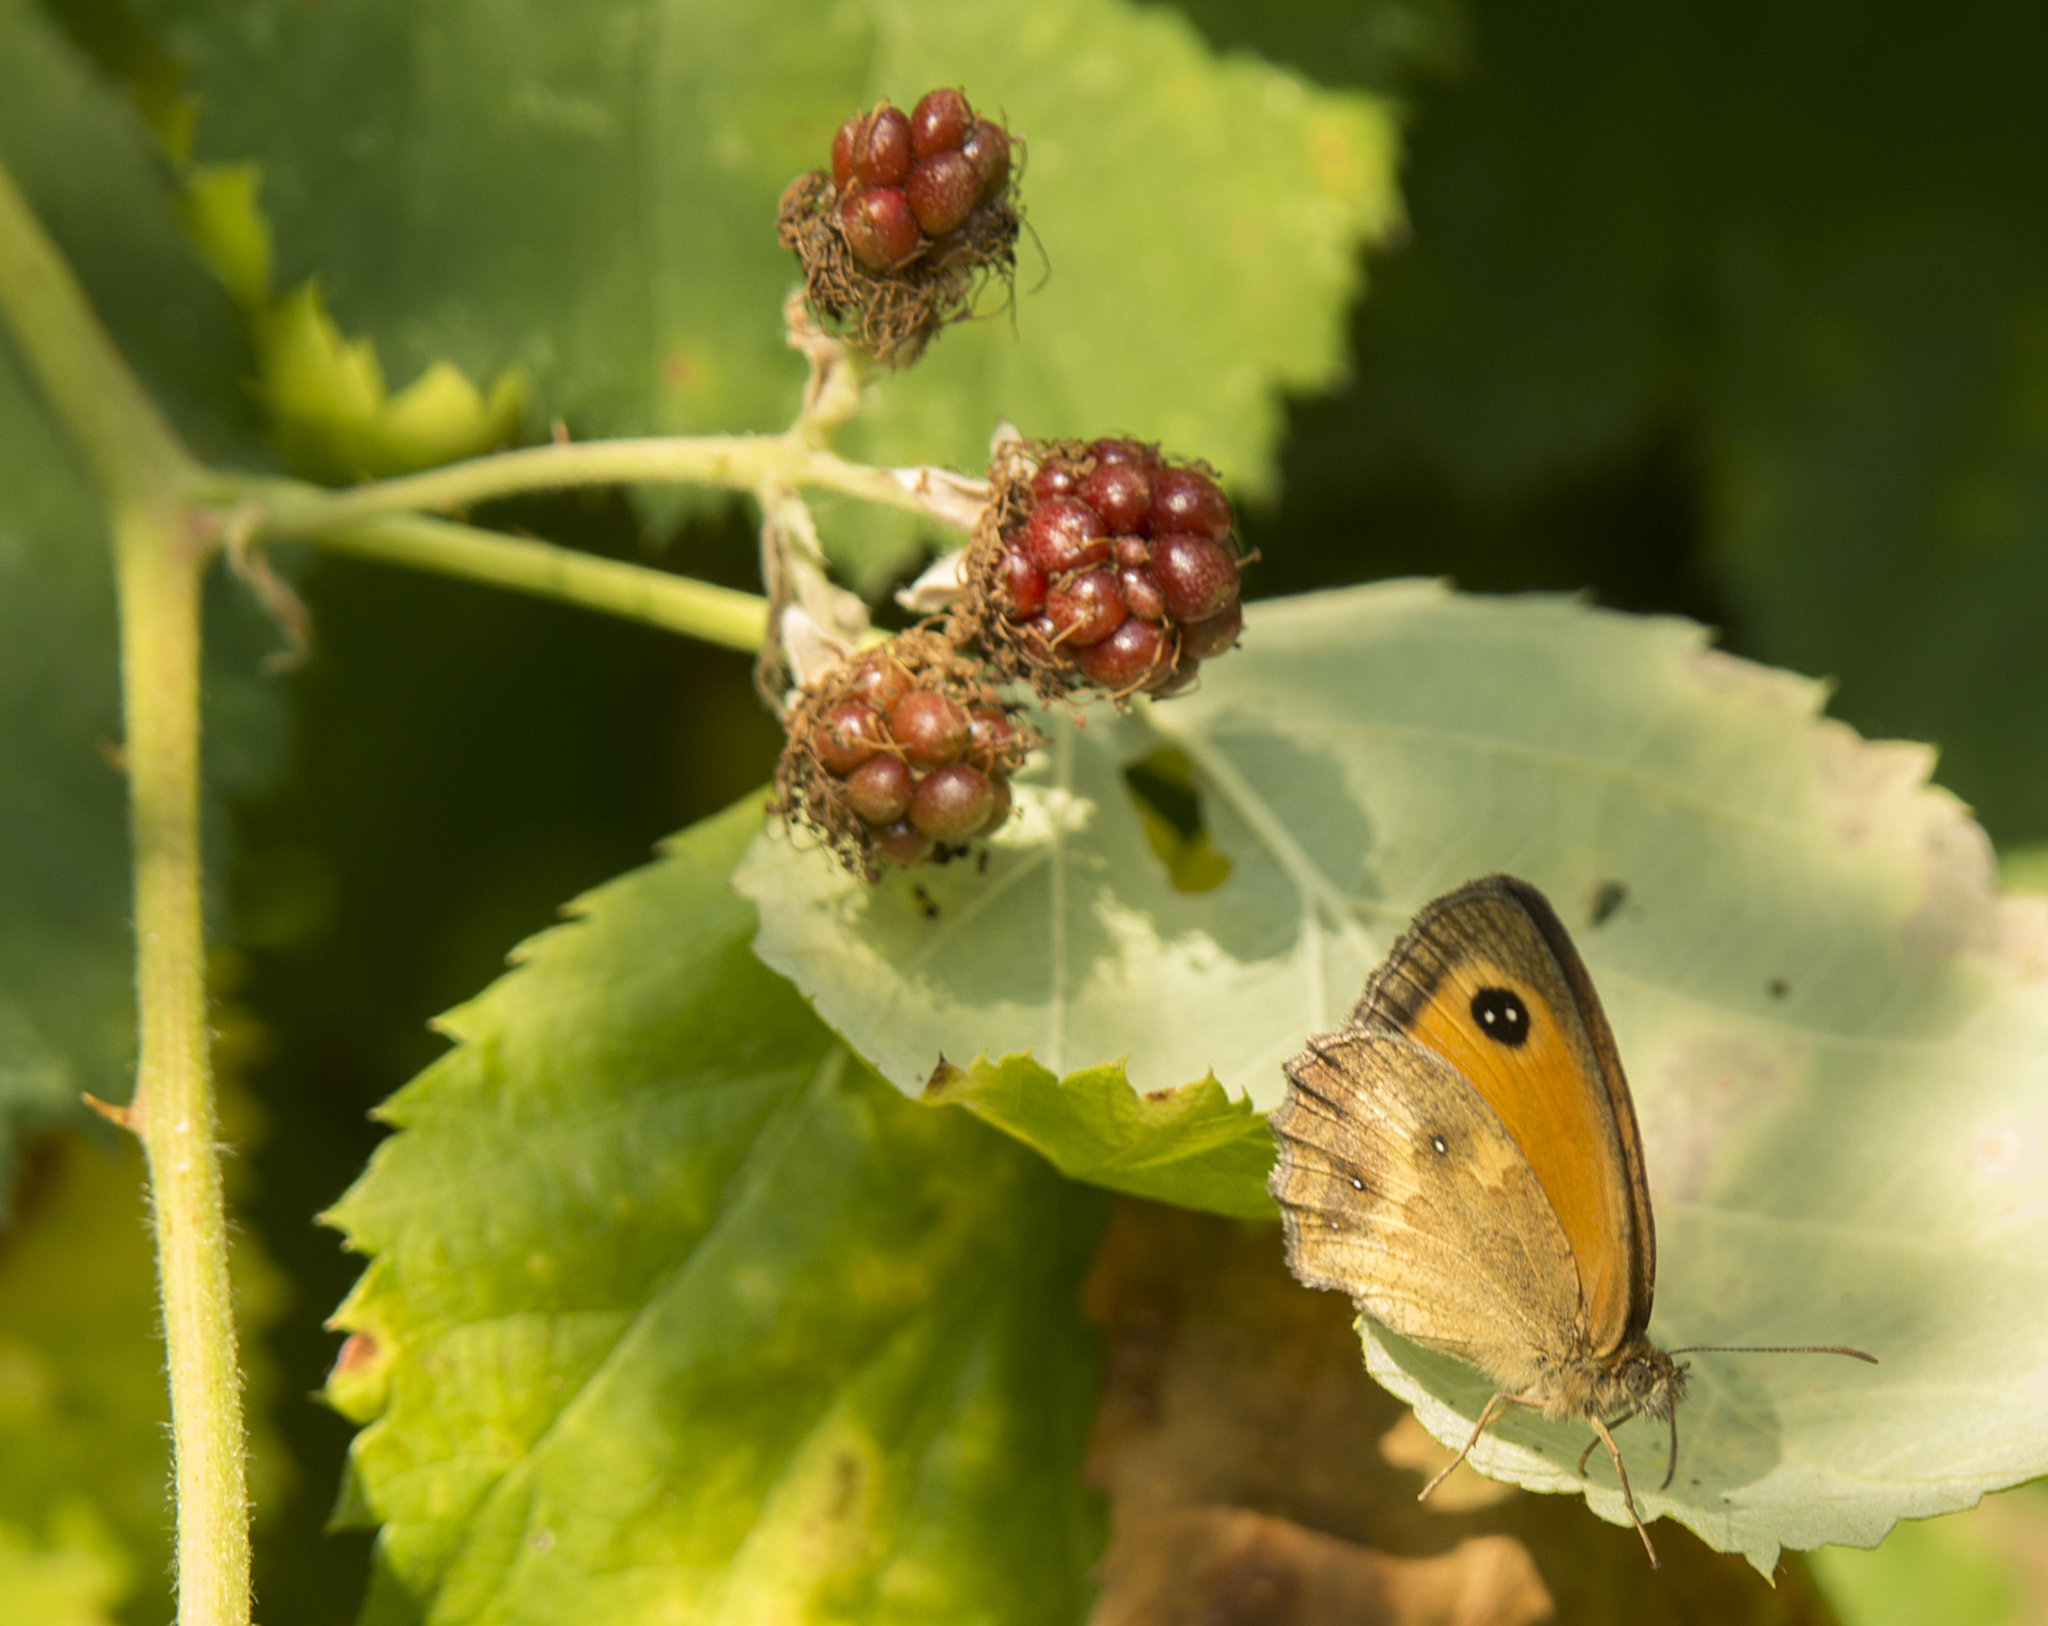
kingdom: Animalia
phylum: Arthropoda
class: Insecta
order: Lepidoptera
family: Nymphalidae
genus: Pyronia
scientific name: Pyronia tithonus
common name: Gatekeeper
